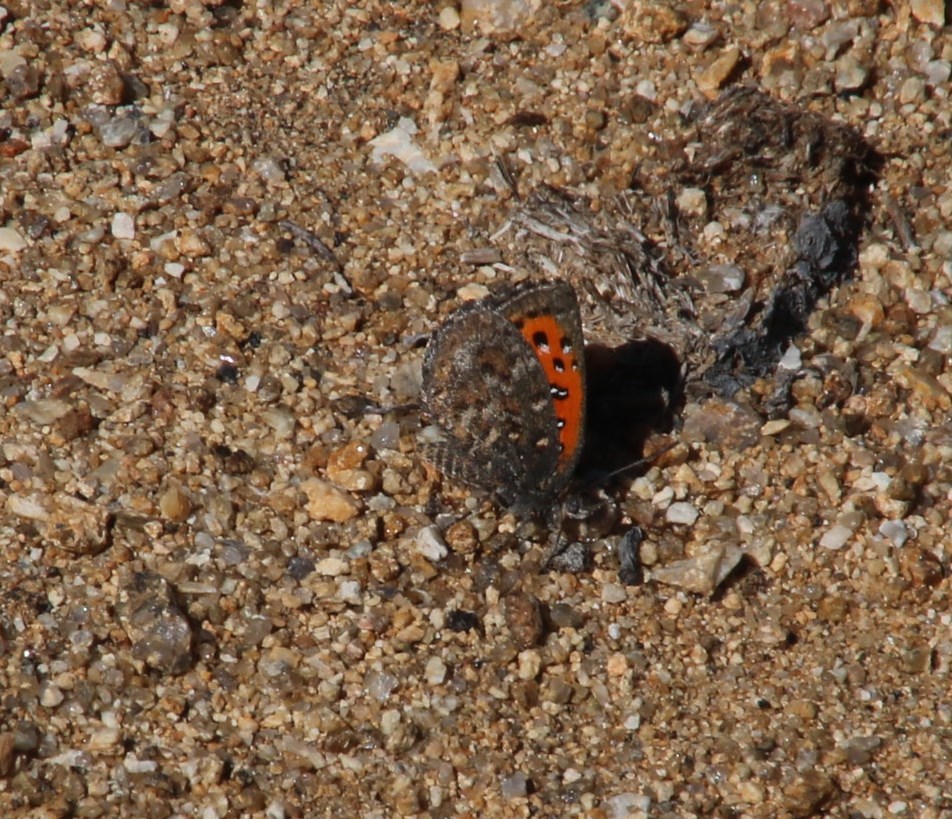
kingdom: Animalia
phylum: Arthropoda
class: Insecta
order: Lepidoptera
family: Lycaenidae
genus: Zeritis
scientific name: Zeritis barklyi
